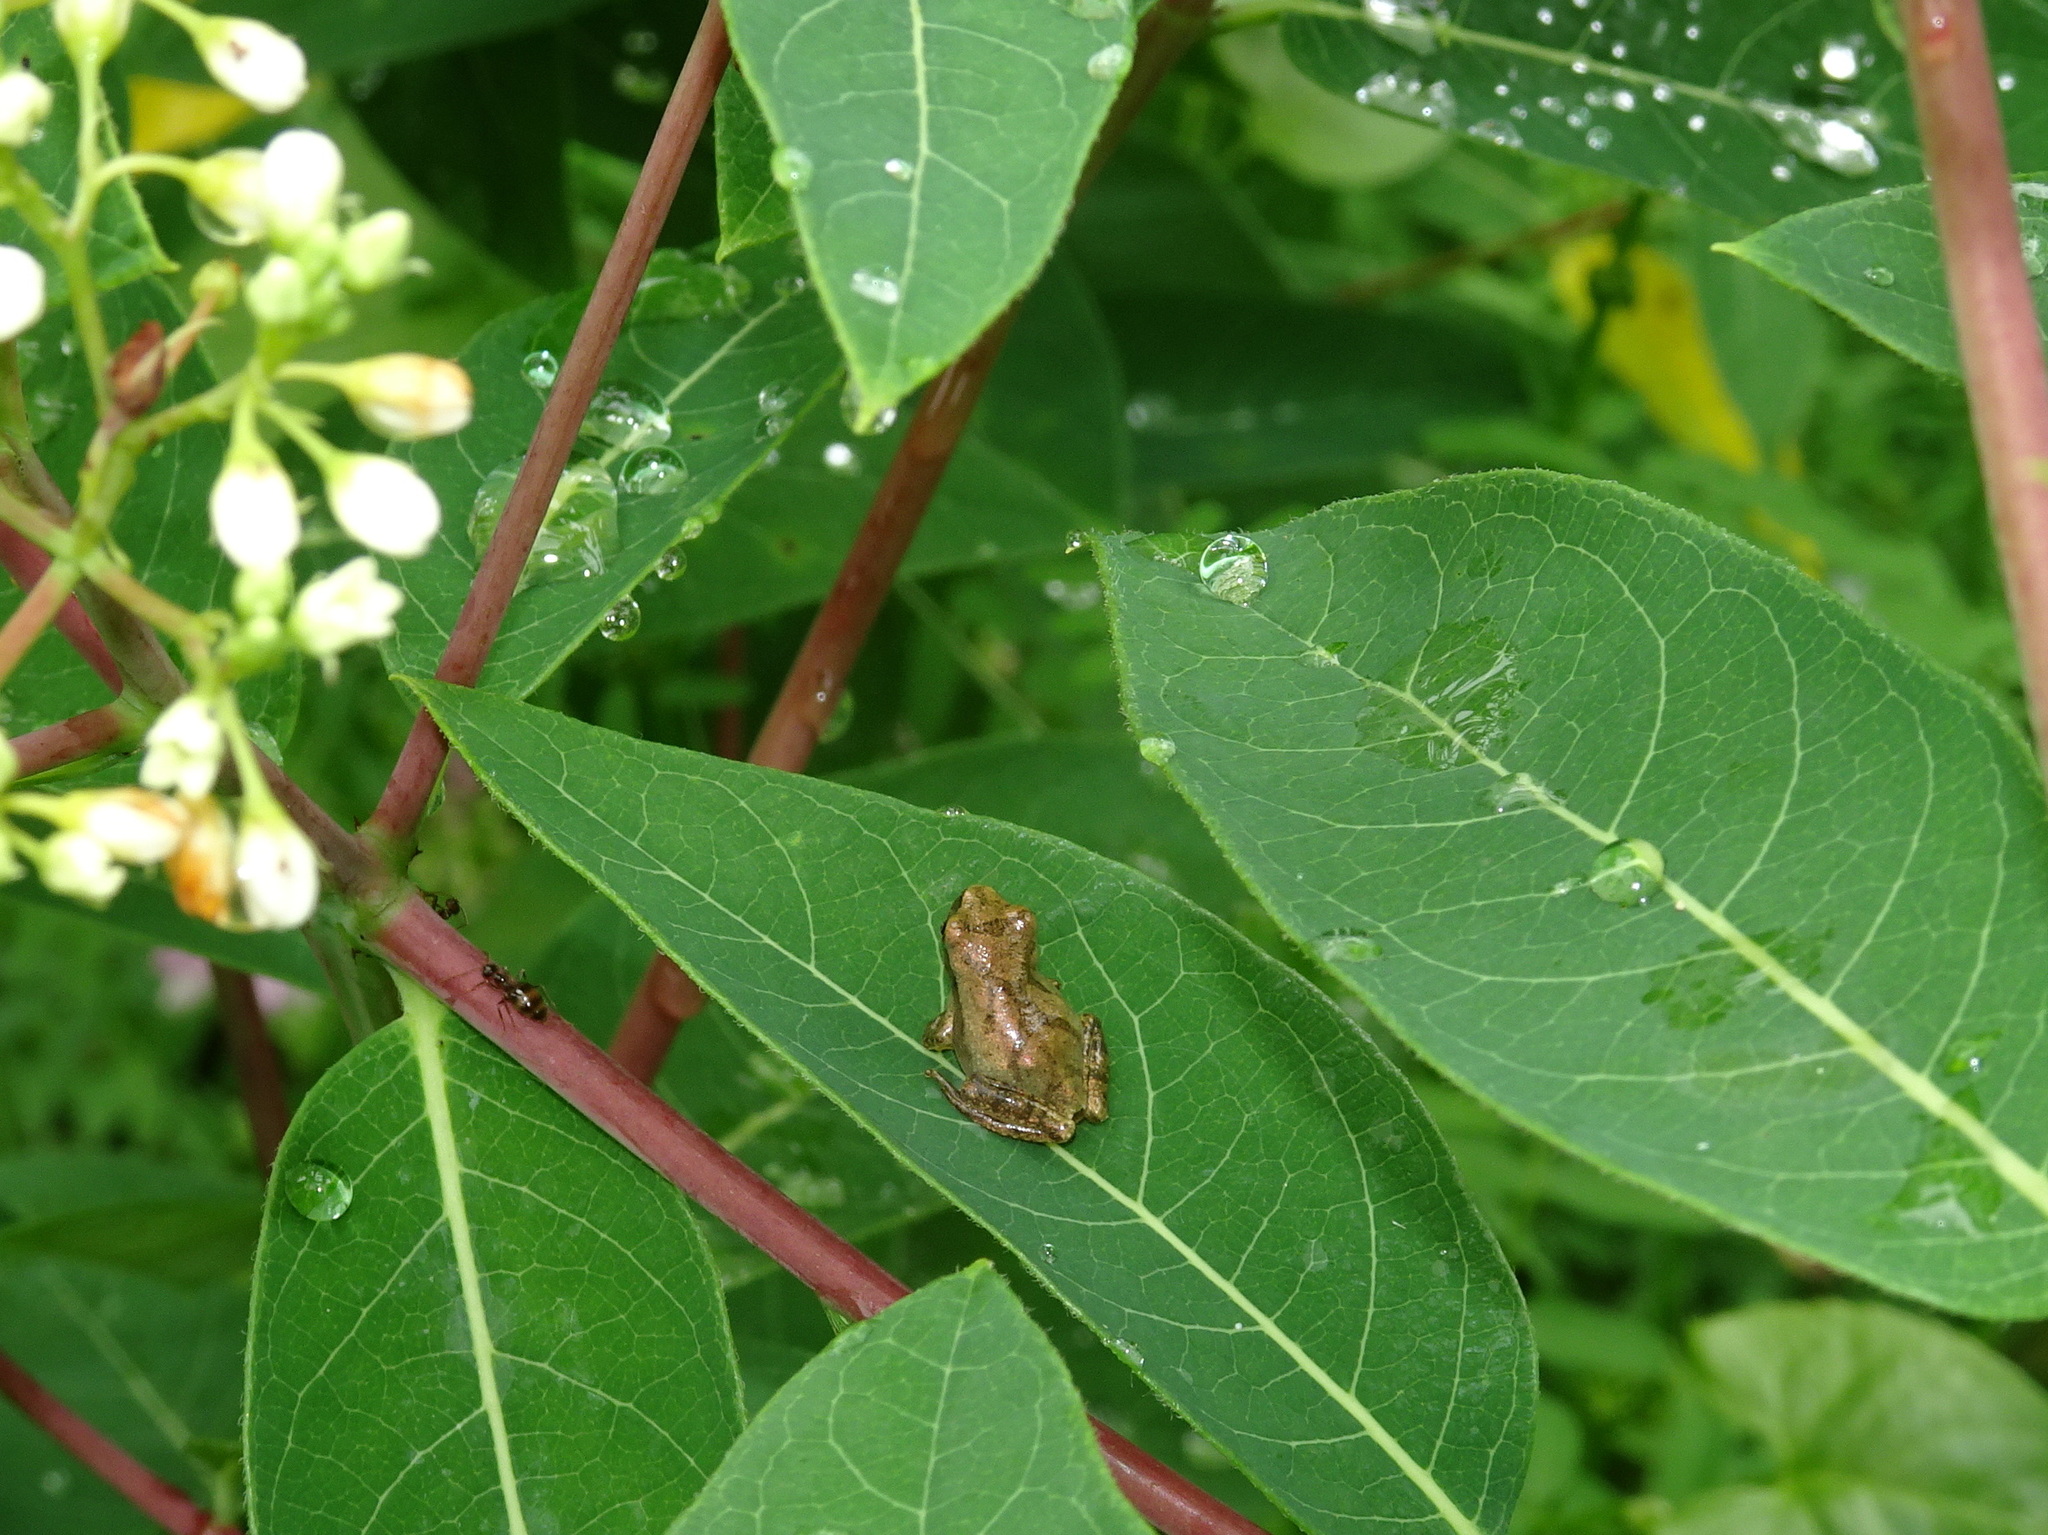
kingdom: Animalia
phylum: Chordata
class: Amphibia
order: Anura
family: Hylidae
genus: Pseudacris
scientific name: Pseudacris crucifer
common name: Spring peeper
